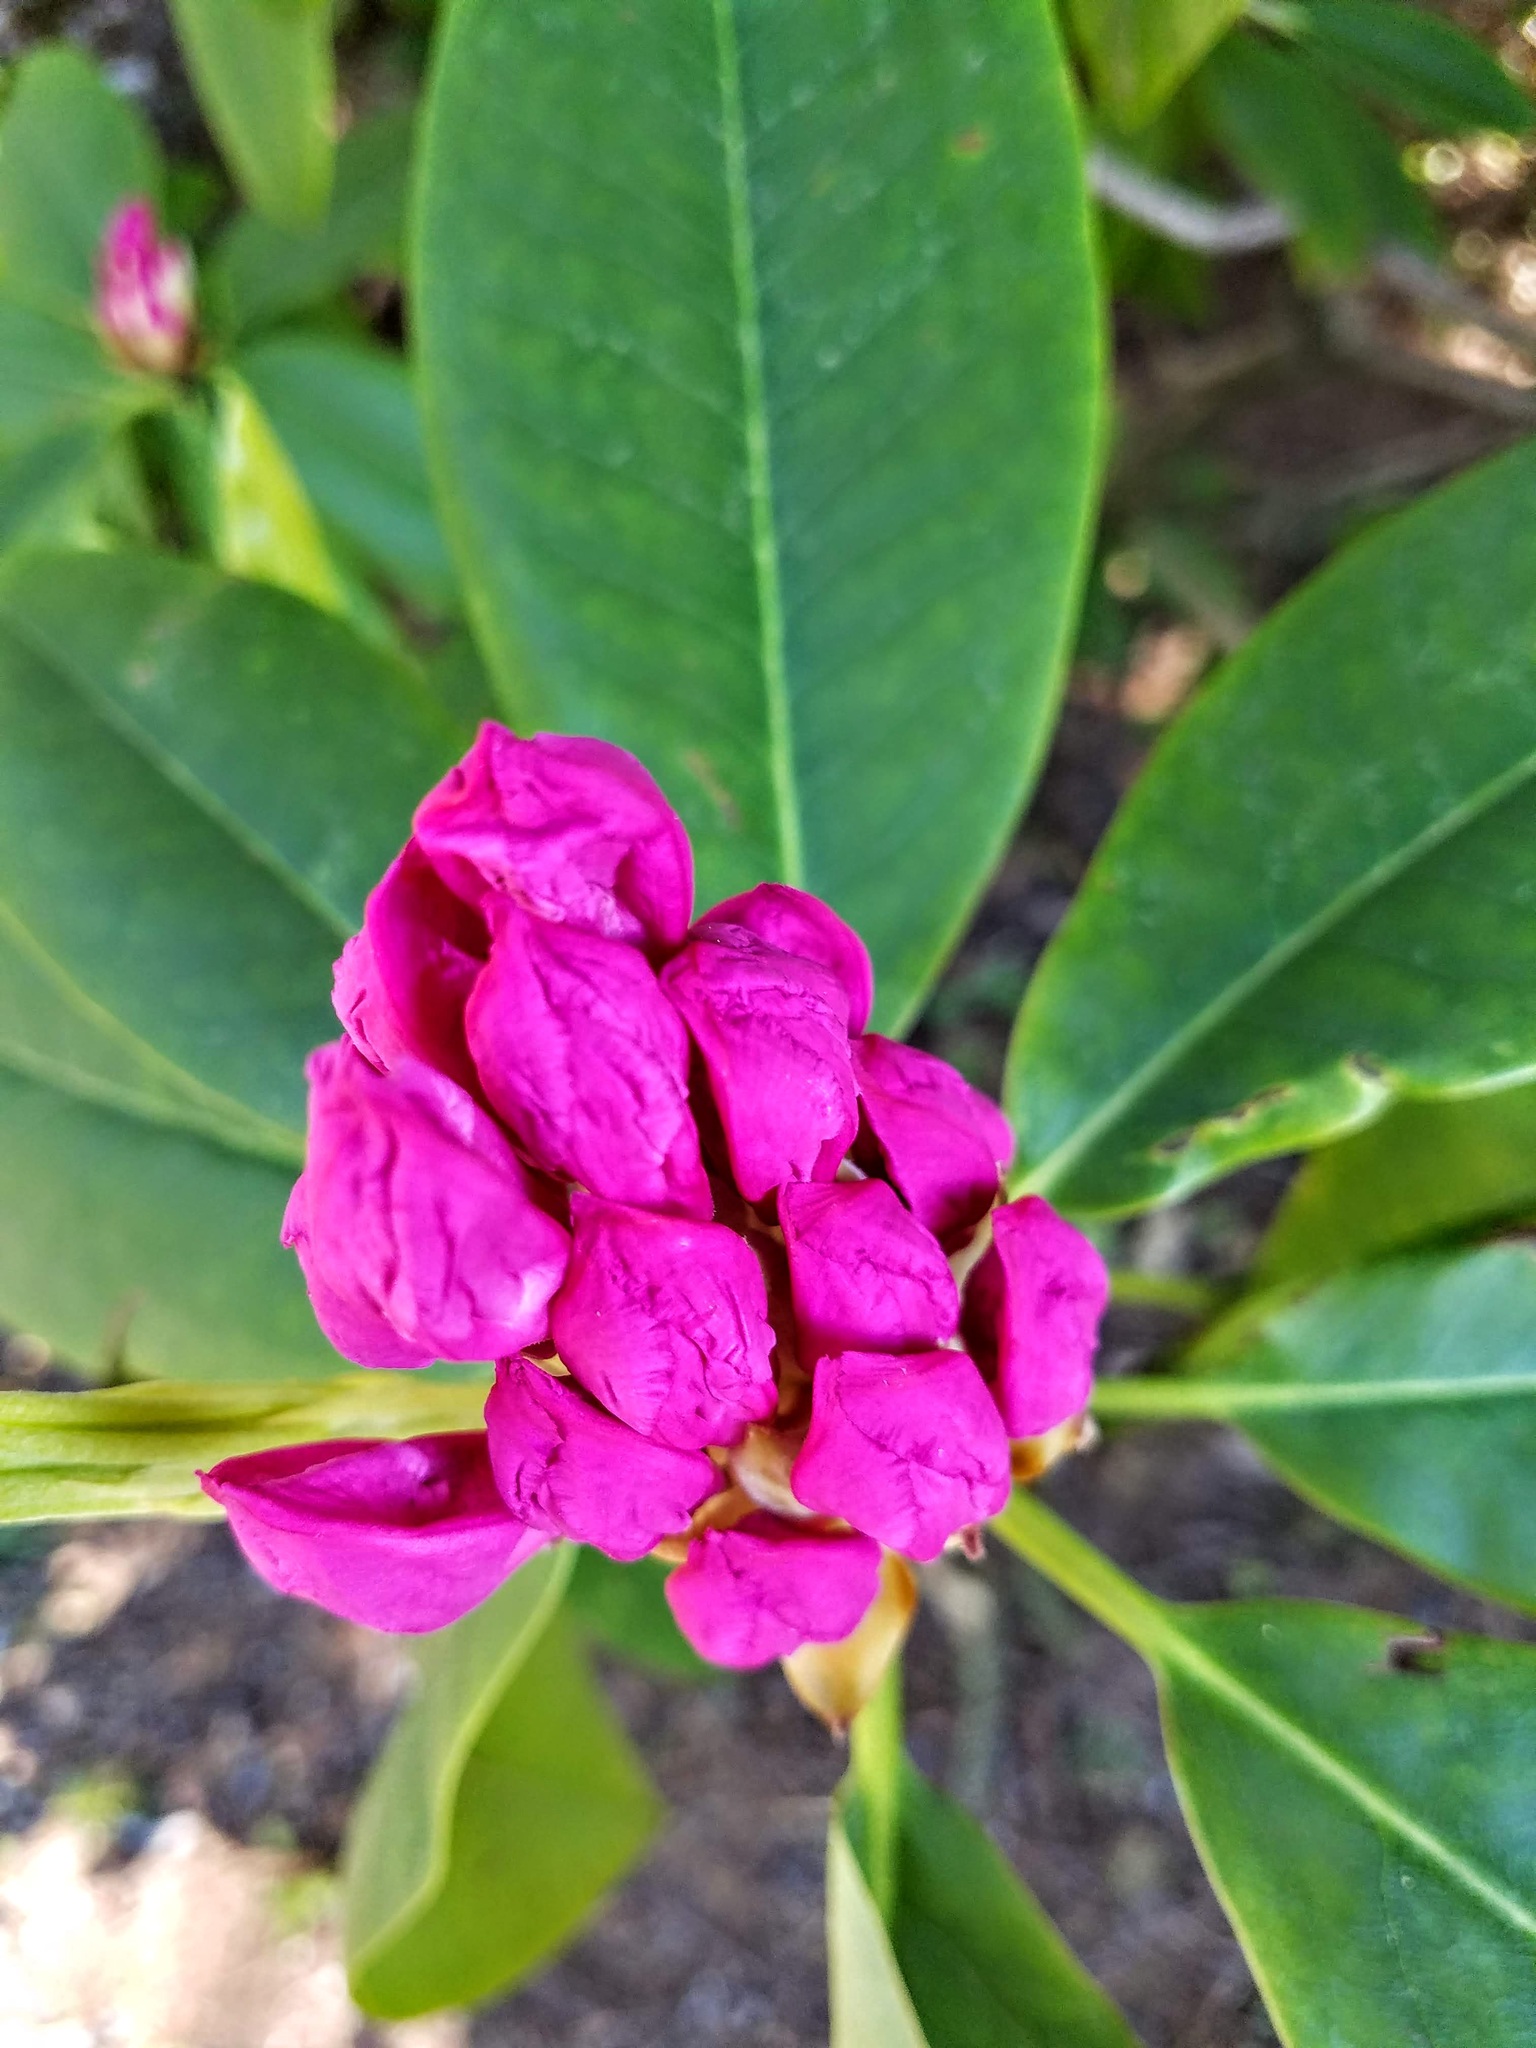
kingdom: Plantae
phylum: Tracheophyta
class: Magnoliopsida
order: Ericales
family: Ericaceae
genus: Rhododendron
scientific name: Rhododendron macrophyllum
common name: California rose bay
